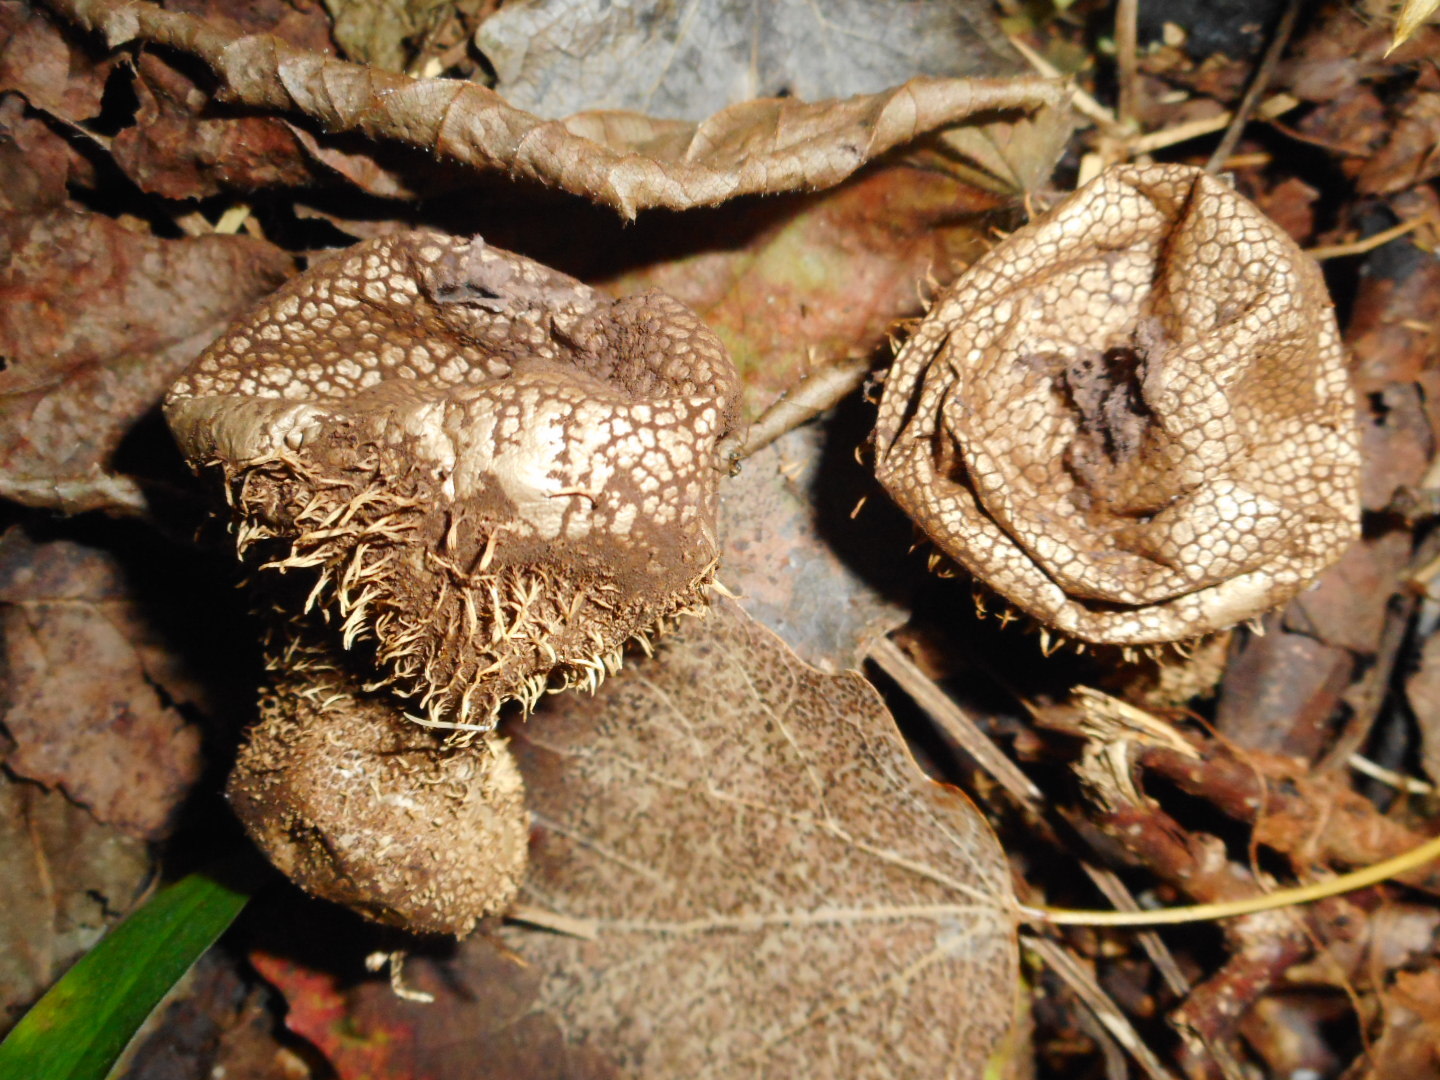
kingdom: Fungi
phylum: Basidiomycota
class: Agaricomycetes
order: Agaricales
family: Lycoperdaceae
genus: Lycoperdon
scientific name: Lycoperdon echinatum
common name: Hedgehog puffball
